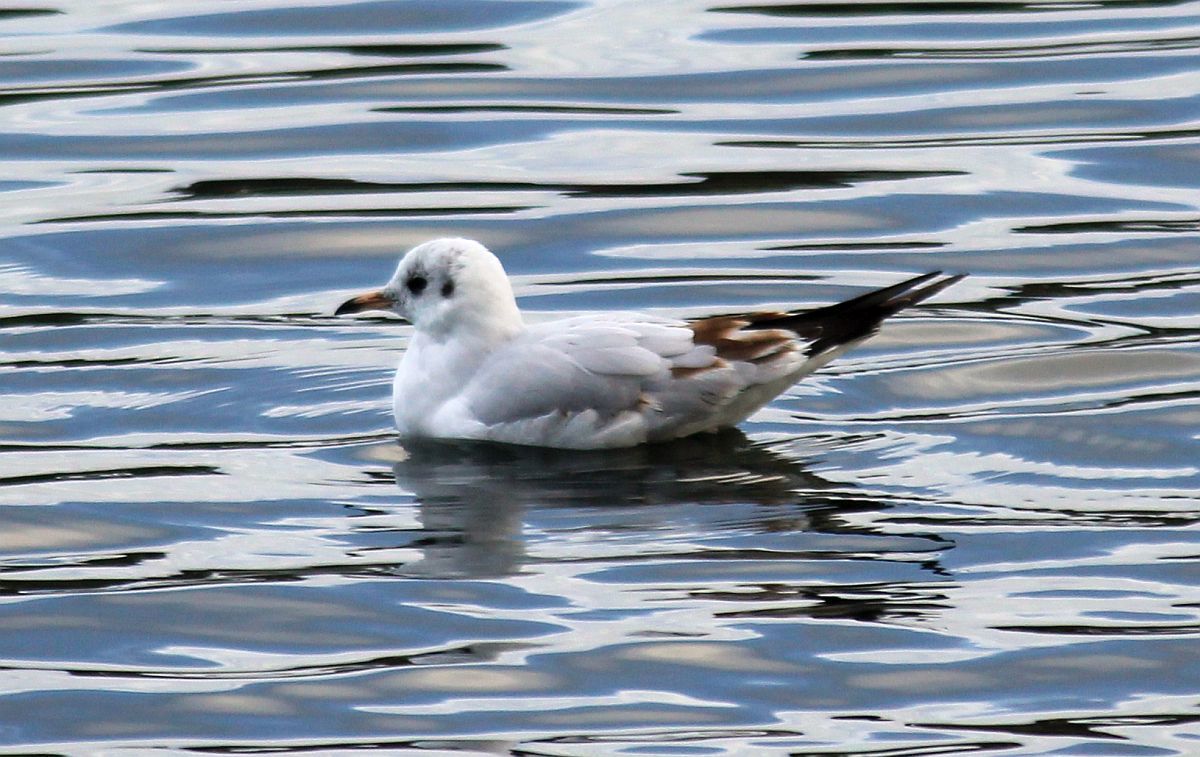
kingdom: Animalia
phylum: Chordata
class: Aves
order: Charadriiformes
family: Laridae
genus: Chroicocephalus
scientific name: Chroicocephalus ridibundus
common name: Black-headed gull
